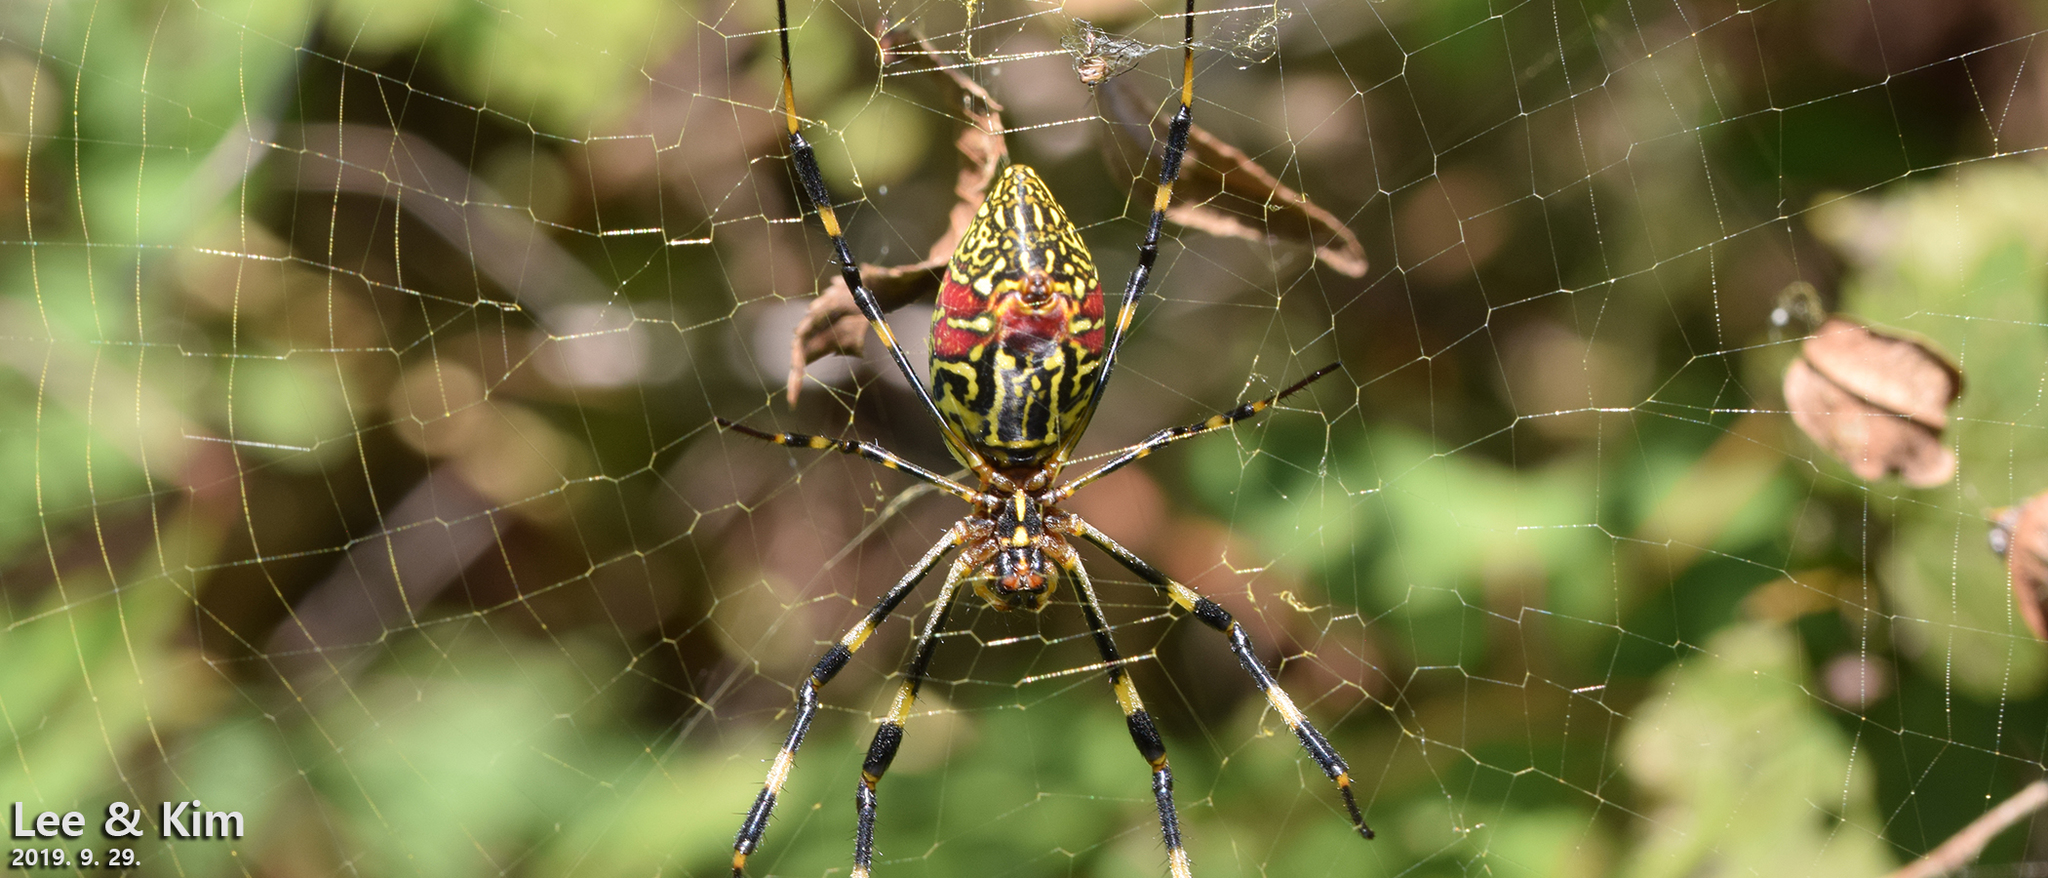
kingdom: Animalia
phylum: Arthropoda
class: Arachnida
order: Araneae
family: Araneidae
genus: Trichonephila
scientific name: Trichonephila clavata
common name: Jorō spider
